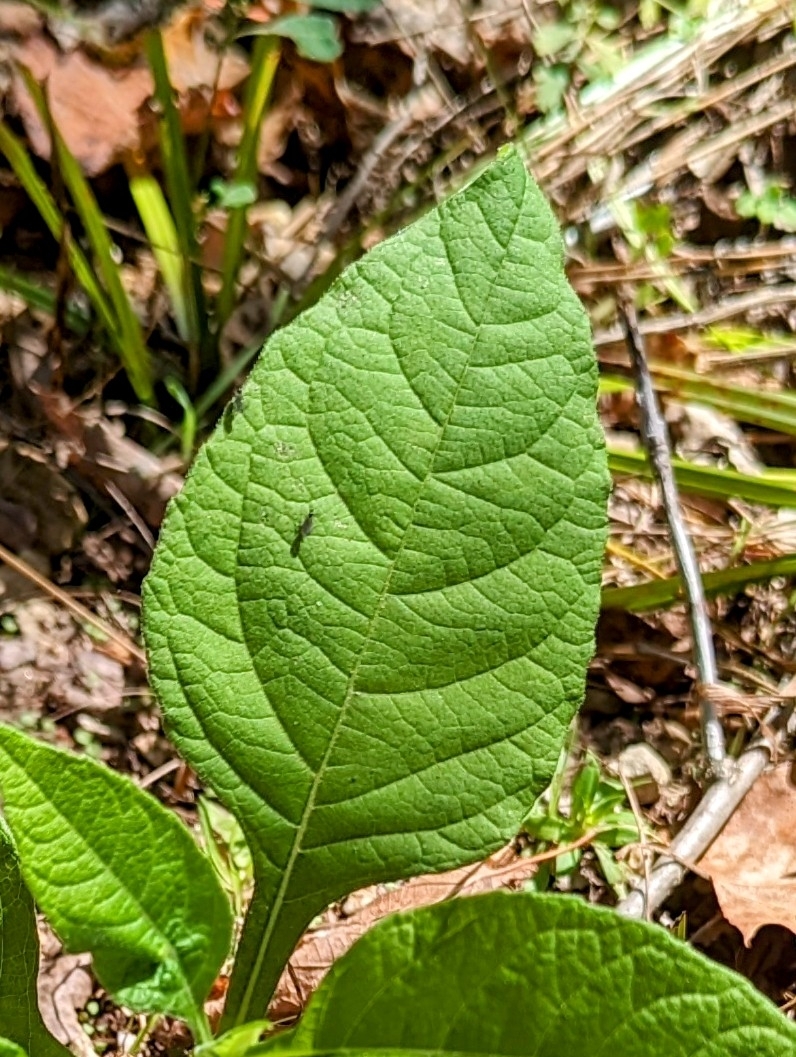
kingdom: Plantae
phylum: Tracheophyta
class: Magnoliopsida
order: Asterales
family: Asteraceae
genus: Verbesina
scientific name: Verbesina virginica
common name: Frostweed
